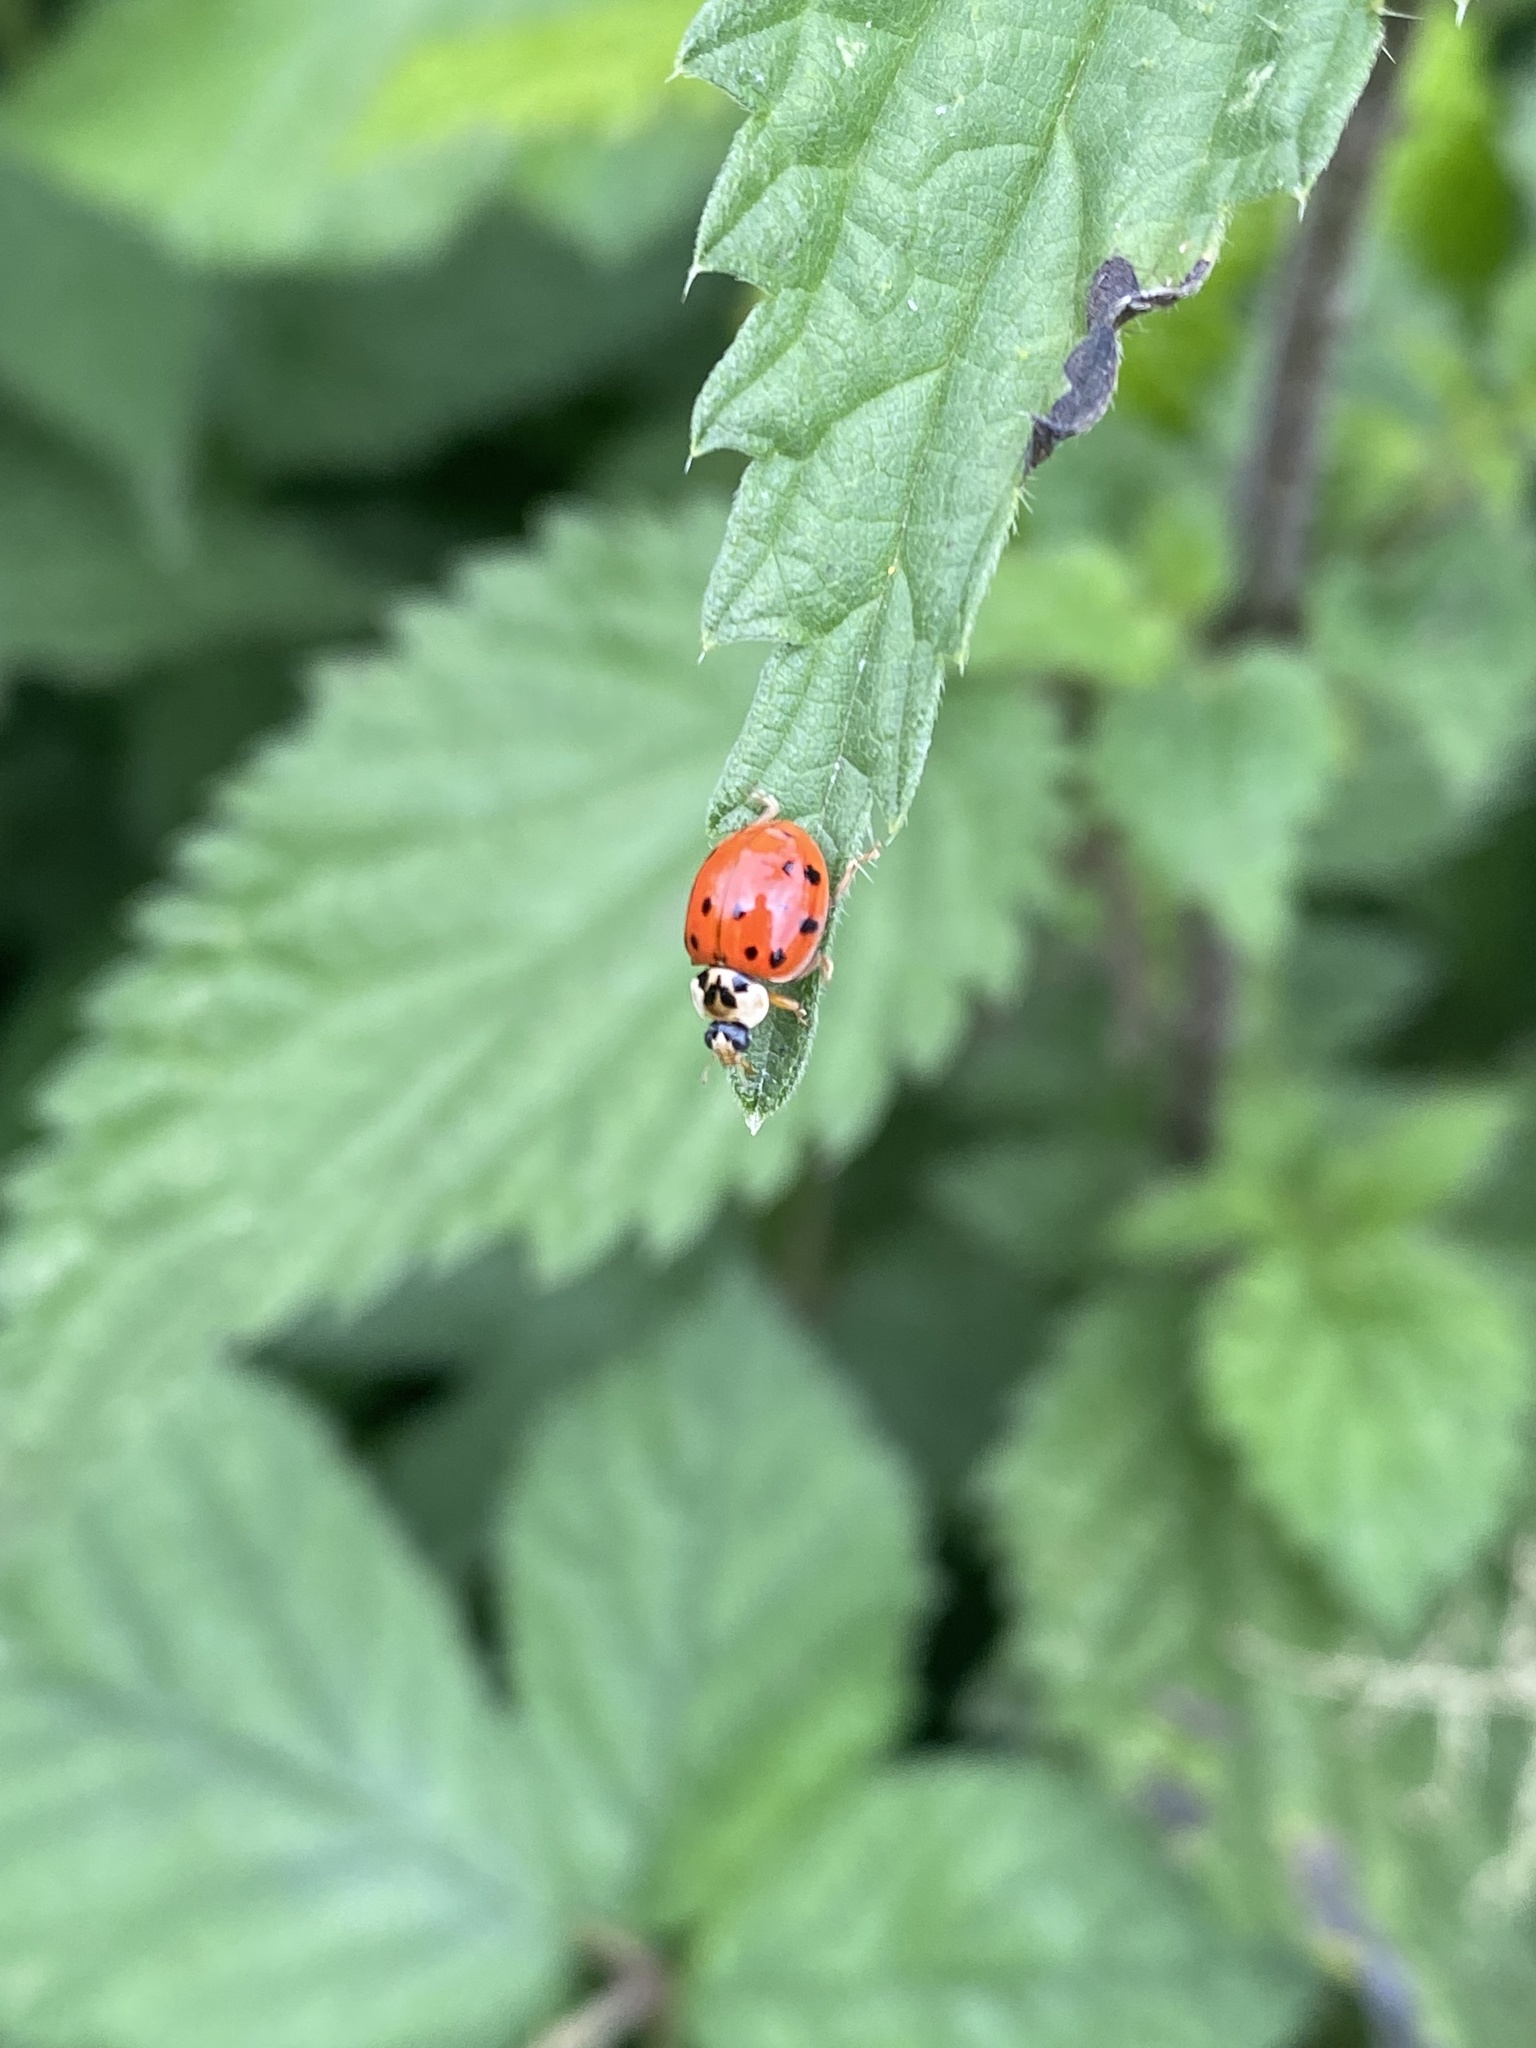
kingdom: Animalia
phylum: Arthropoda
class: Insecta
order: Coleoptera
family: Coccinellidae
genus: Harmonia
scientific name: Harmonia axyridis
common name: Harlequin ladybird
